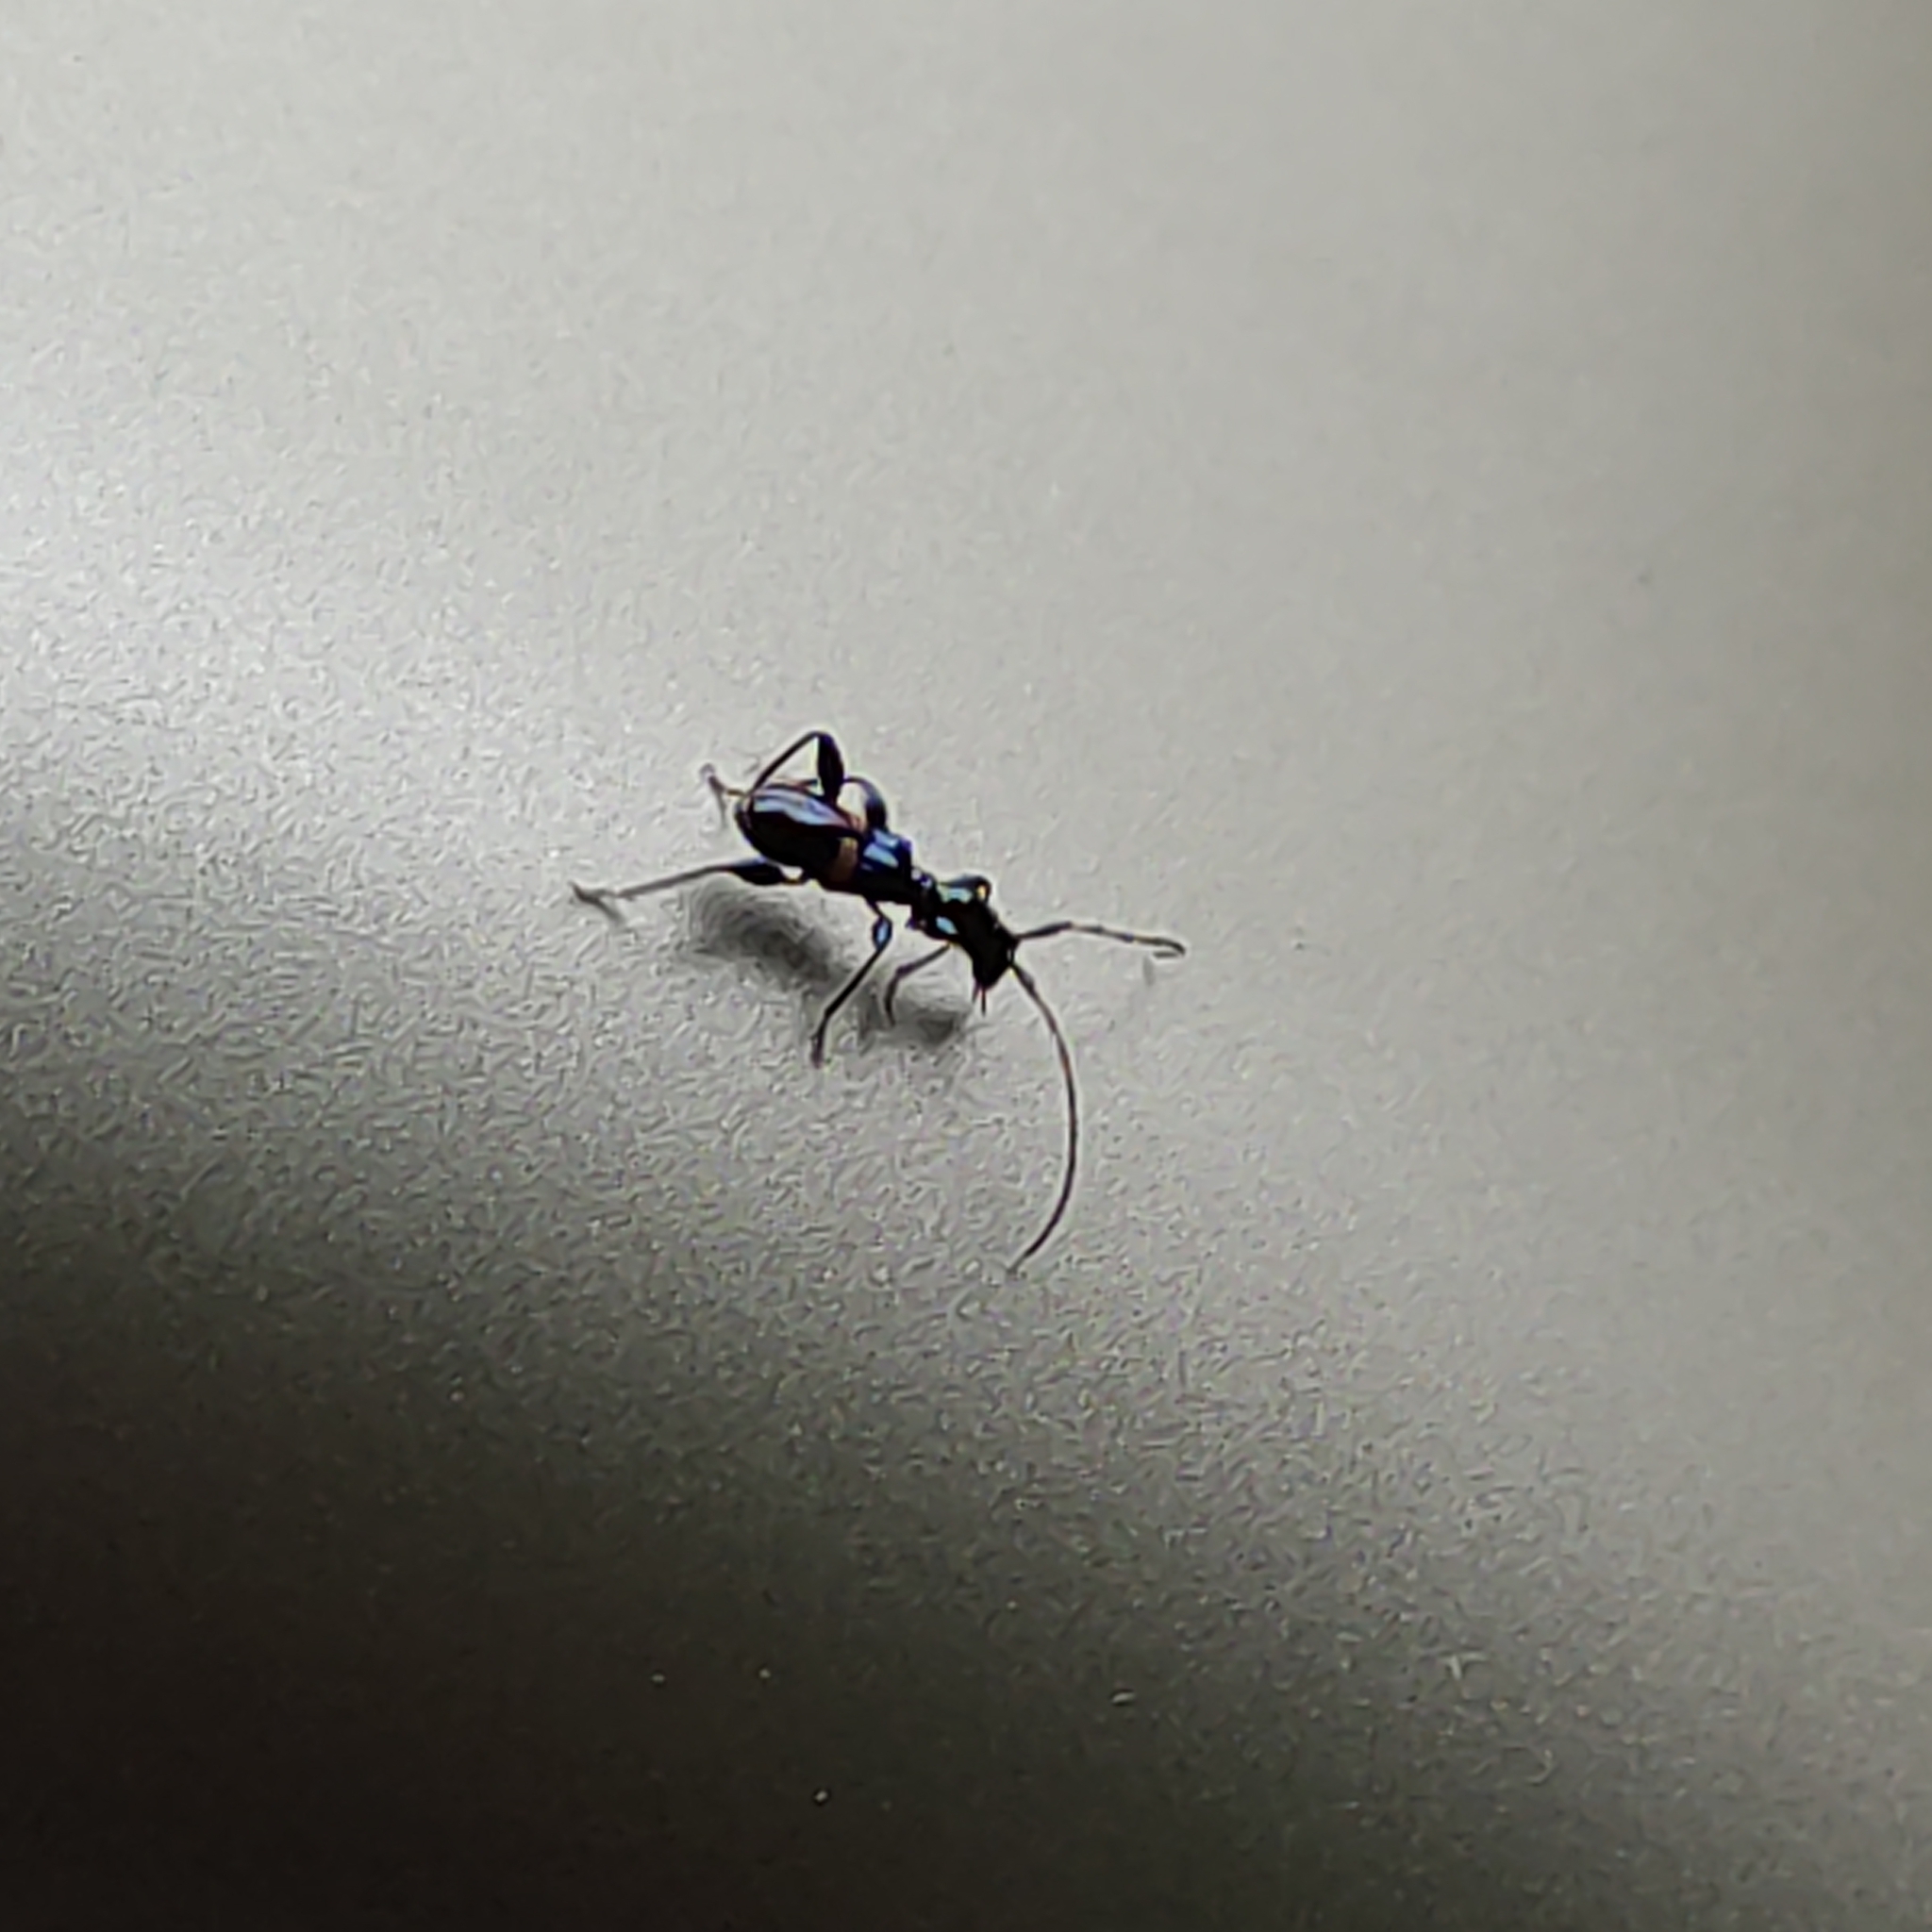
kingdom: Animalia
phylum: Arthropoda
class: Insecta
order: Coleoptera
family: Cerambycidae
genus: Zorion
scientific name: Zorion guttigerum
